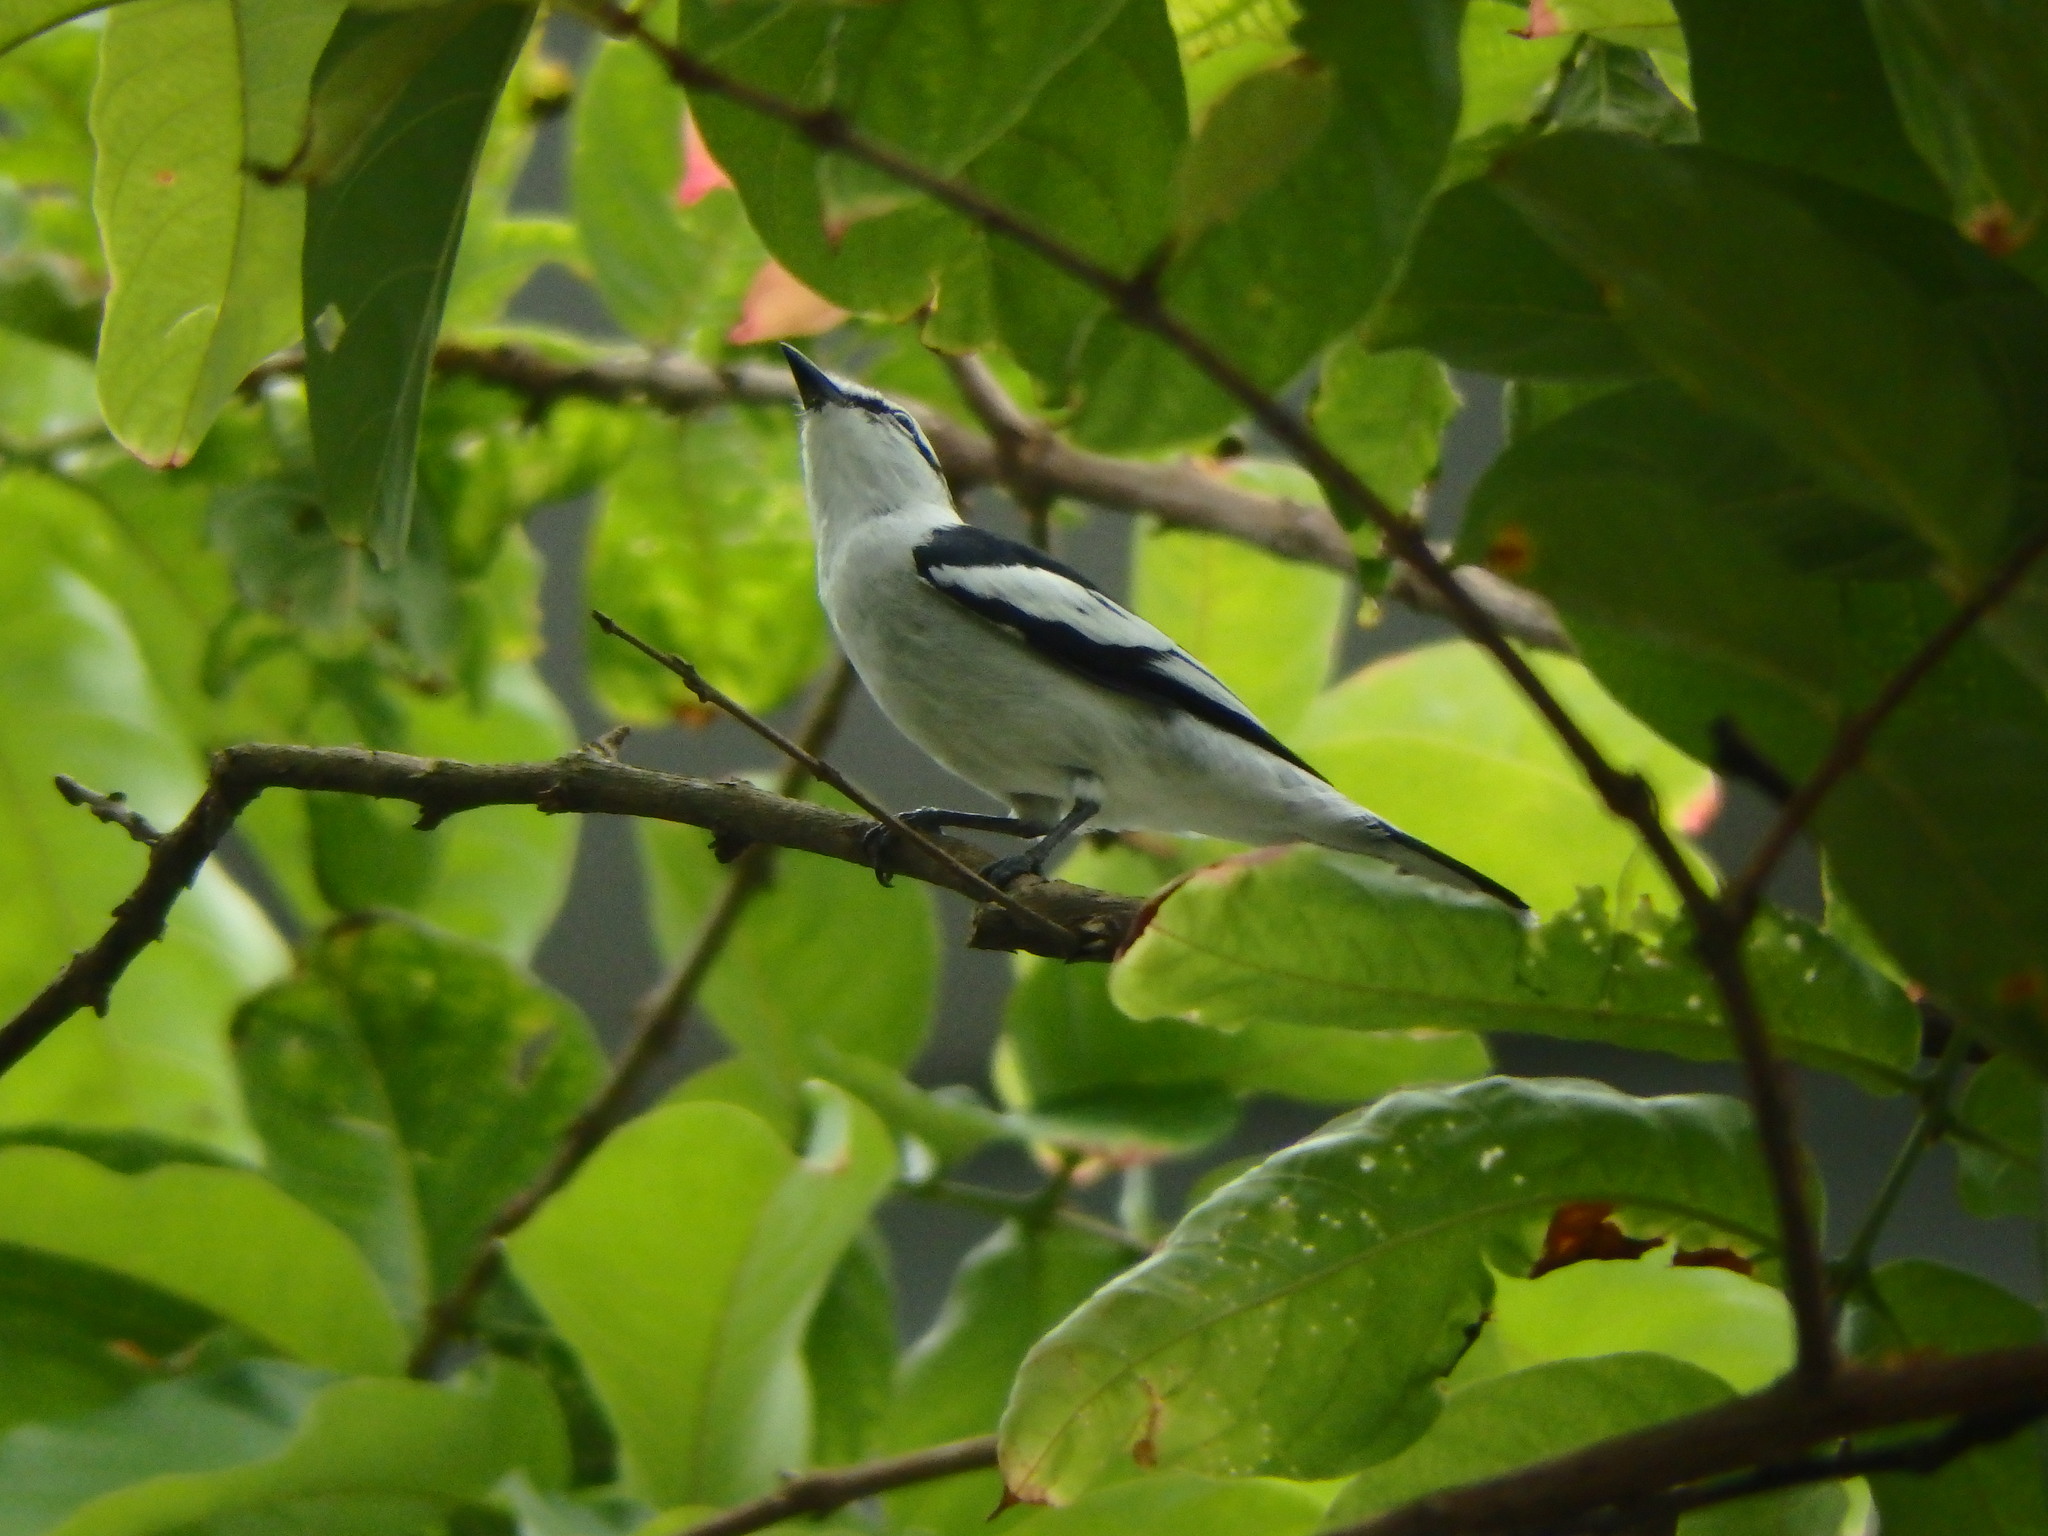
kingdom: Animalia
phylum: Chordata
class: Aves
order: Passeriformes
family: Campephagidae
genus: Lalage
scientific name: Lalage nigra
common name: Pied triller
